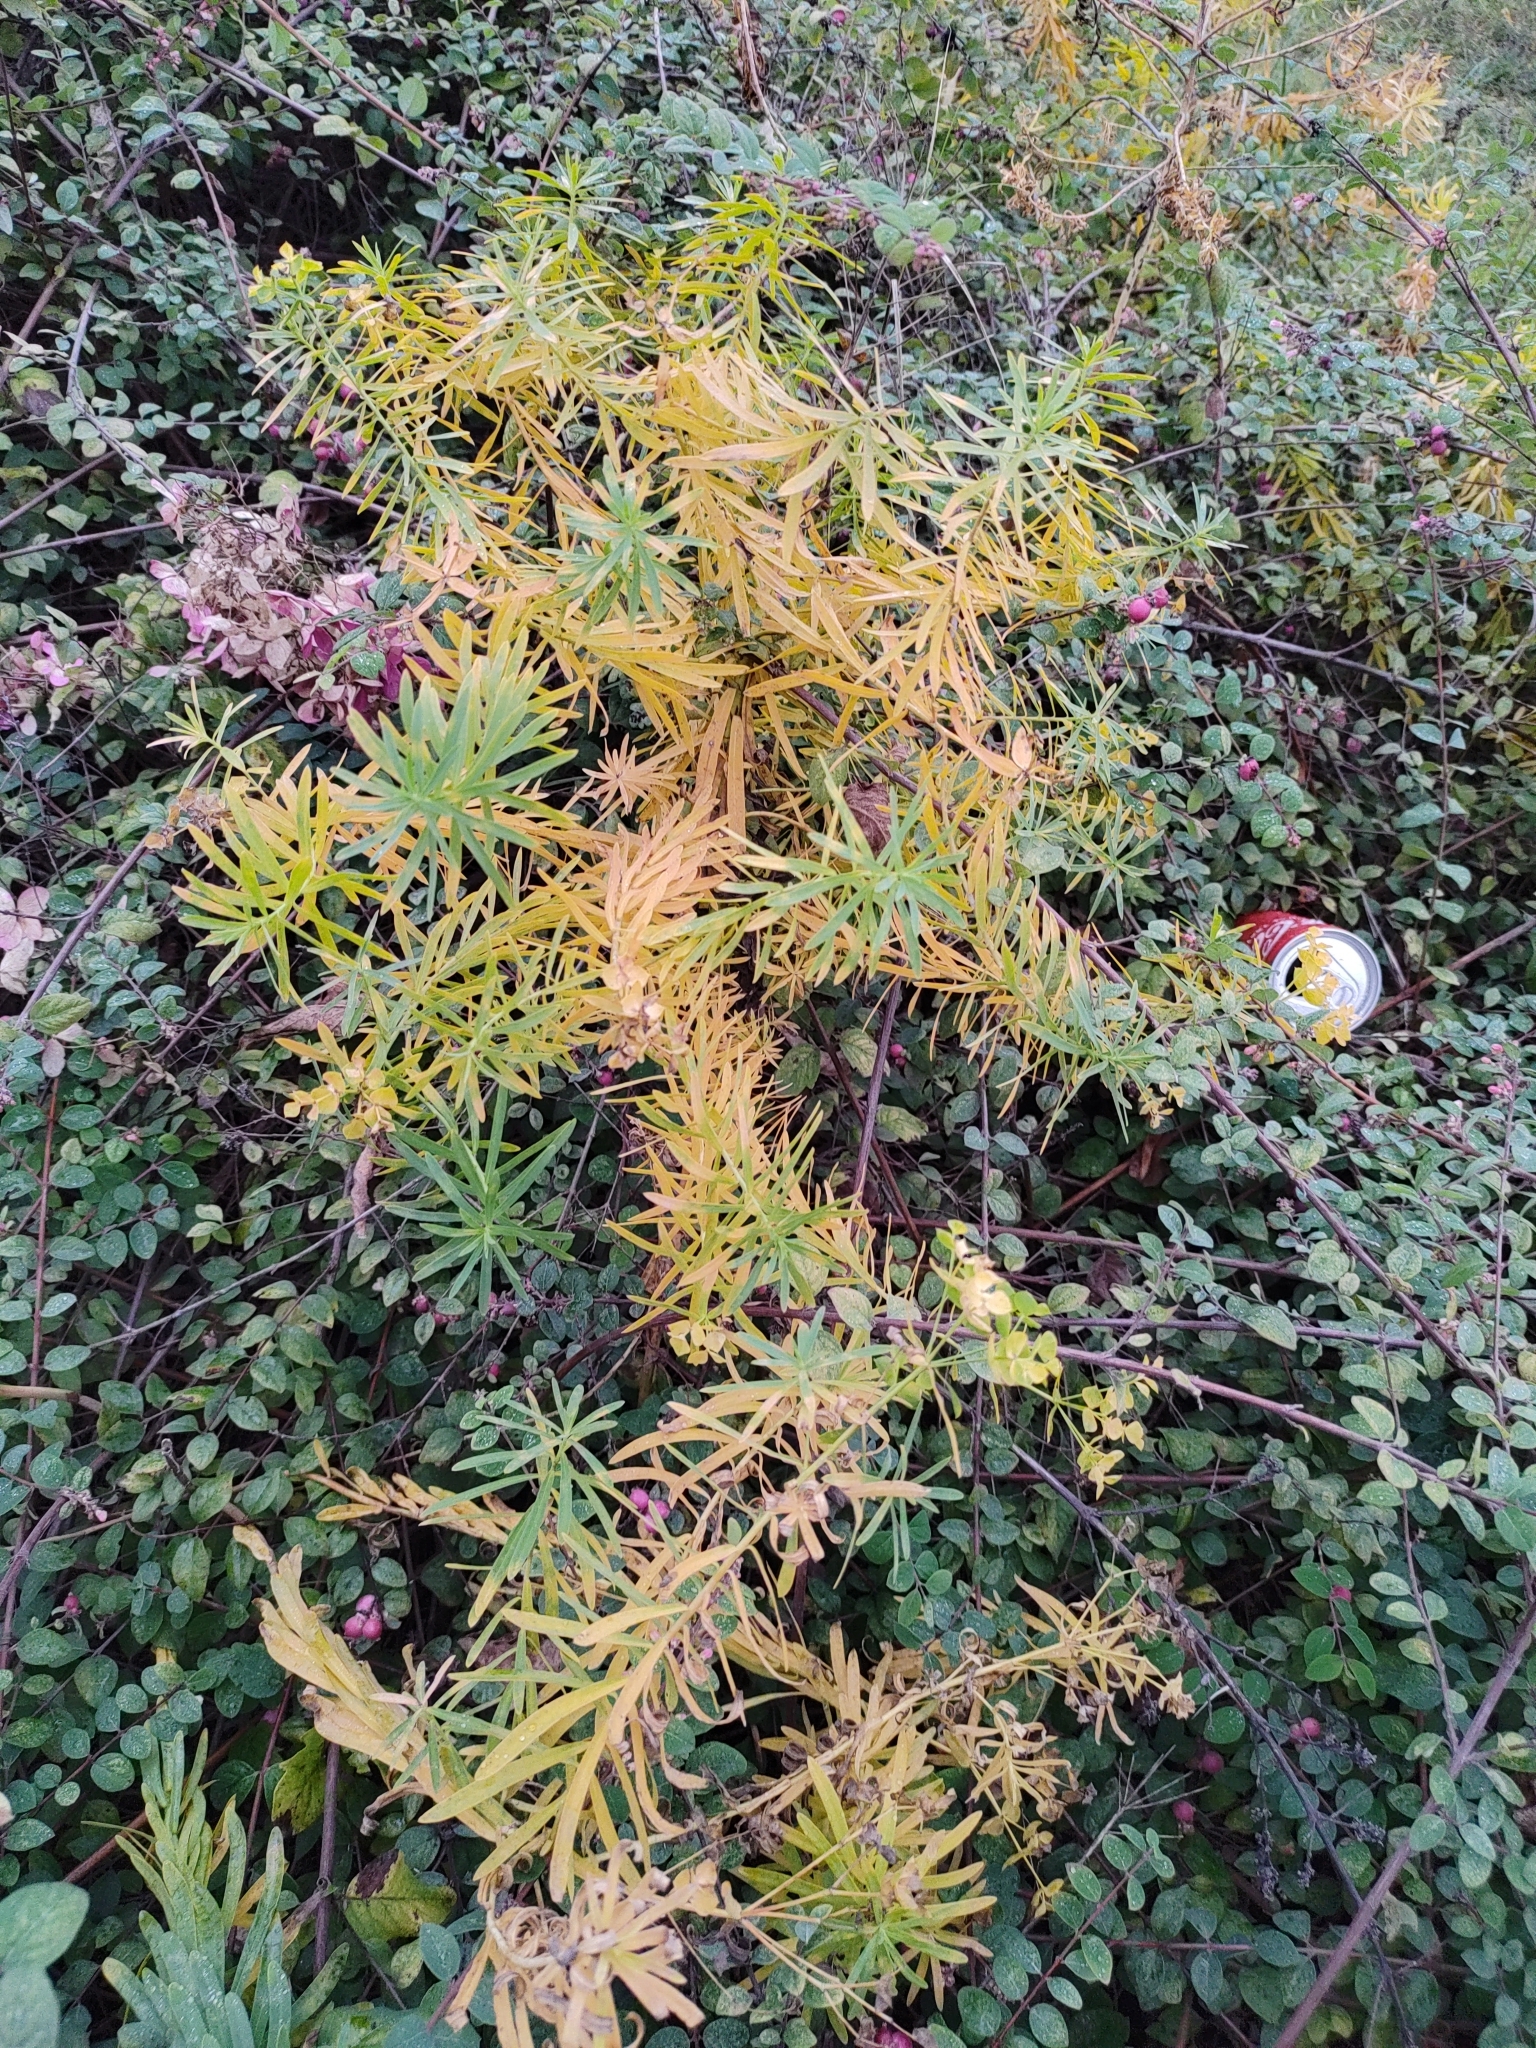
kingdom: Plantae
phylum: Tracheophyta
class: Magnoliopsida
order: Malpighiales
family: Euphorbiaceae
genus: Euphorbia
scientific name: Euphorbia esula
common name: Leafy spurge
